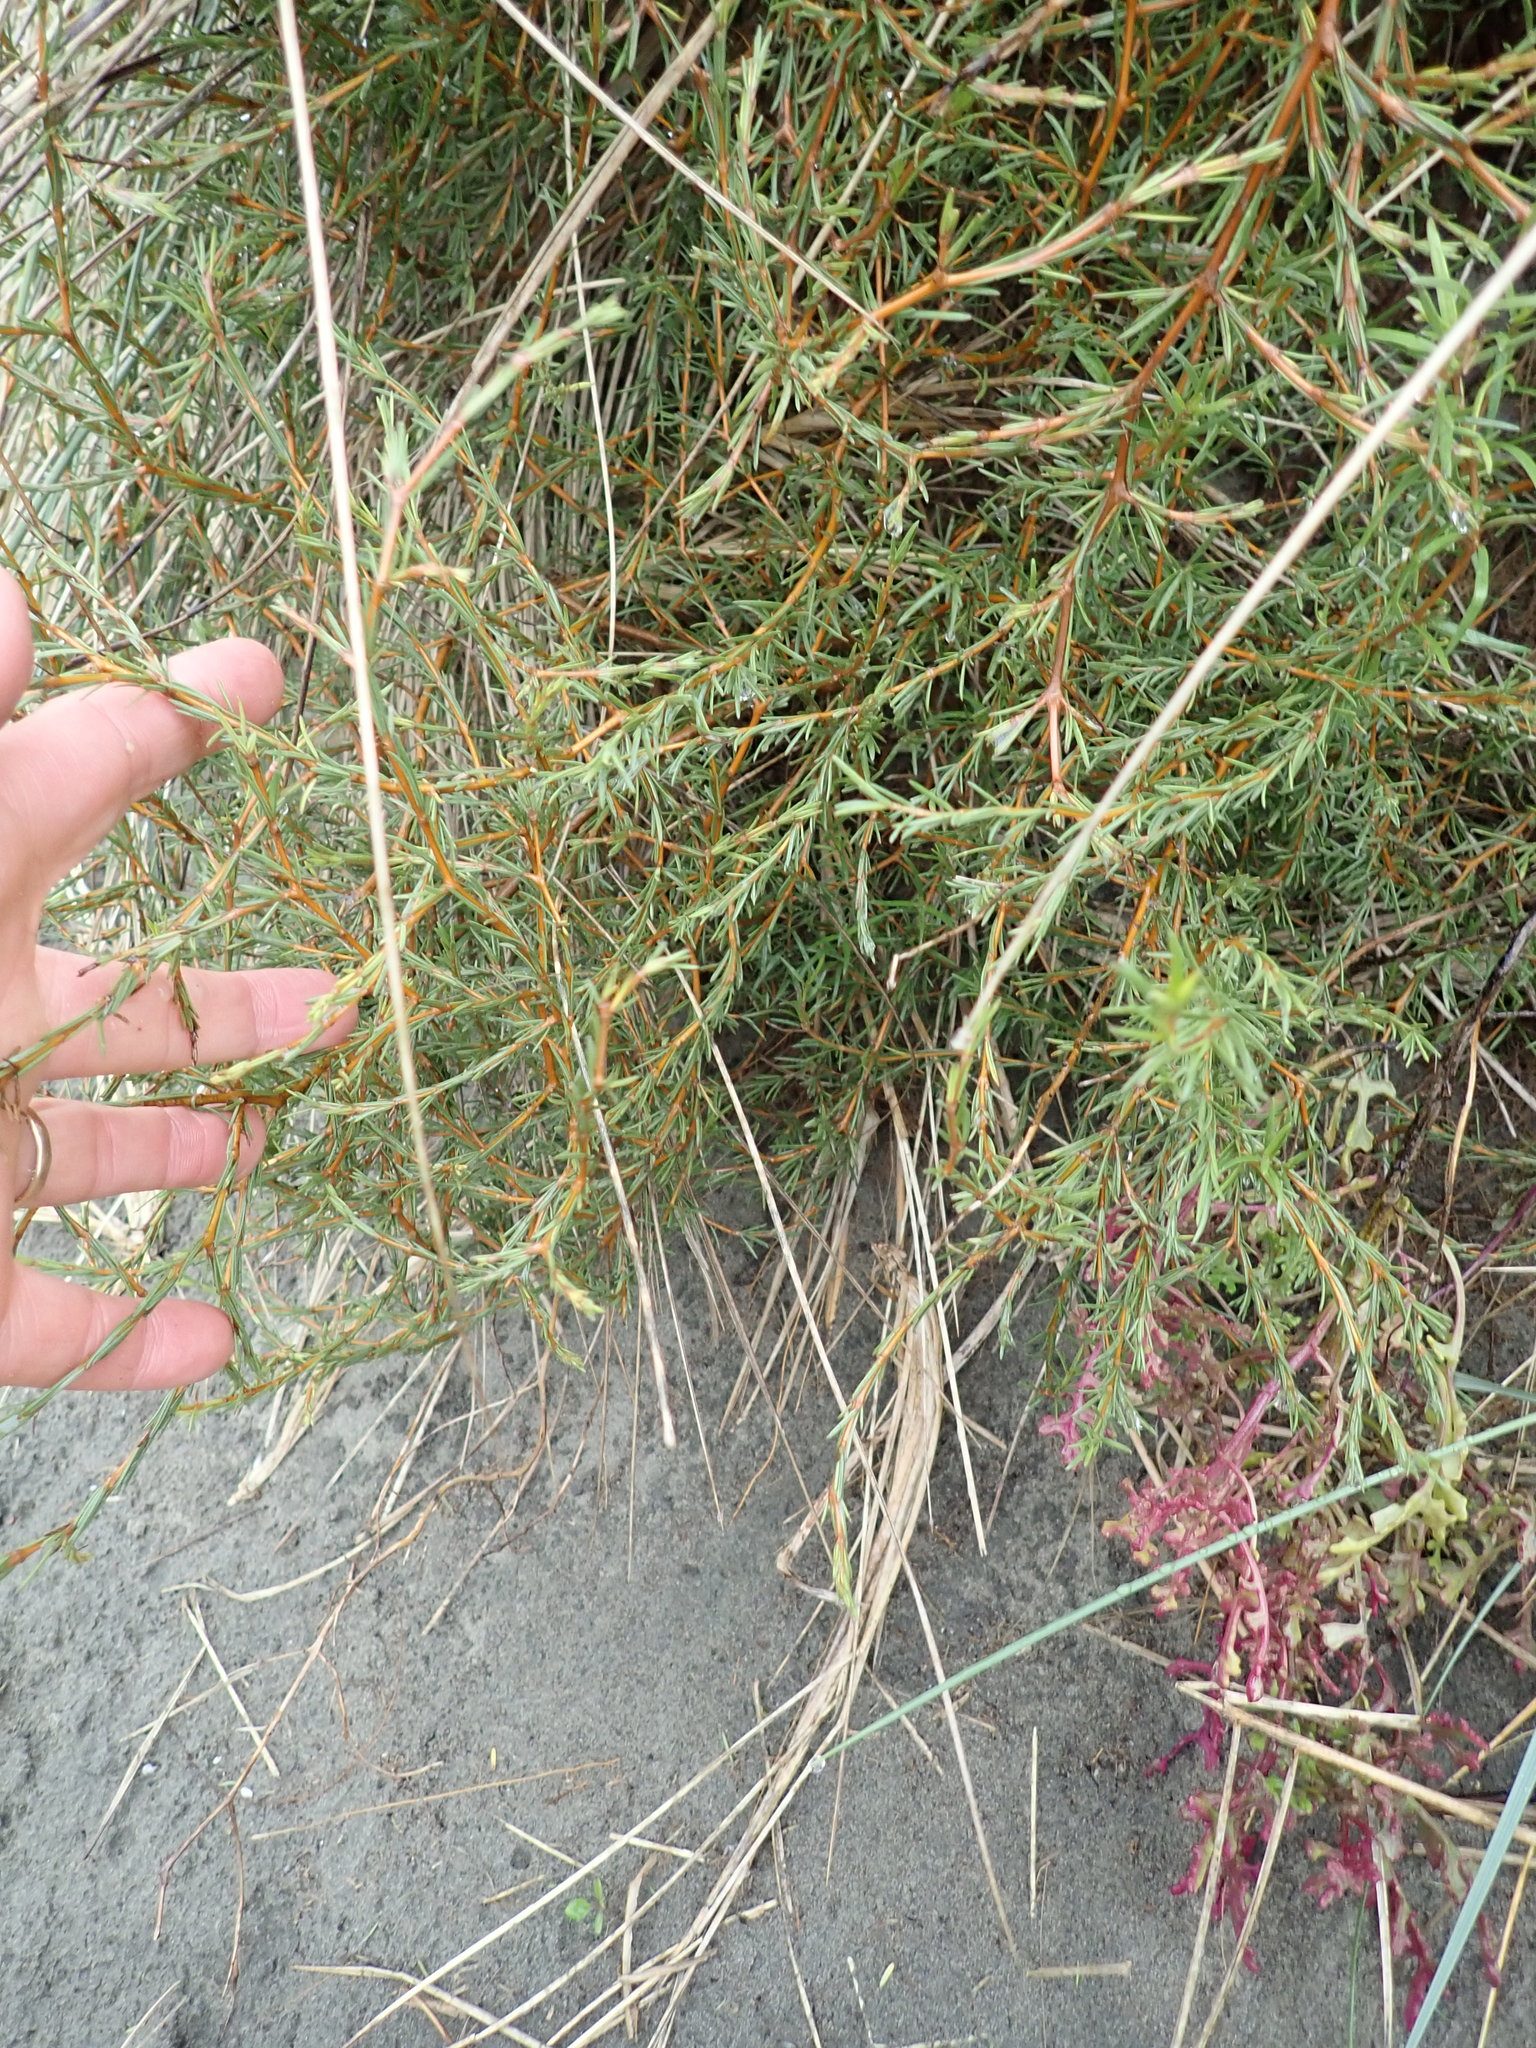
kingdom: Plantae
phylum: Tracheophyta
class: Magnoliopsida
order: Gentianales
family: Rubiaceae
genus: Coprosma
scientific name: Coprosma acerosa
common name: Sand coprosma
